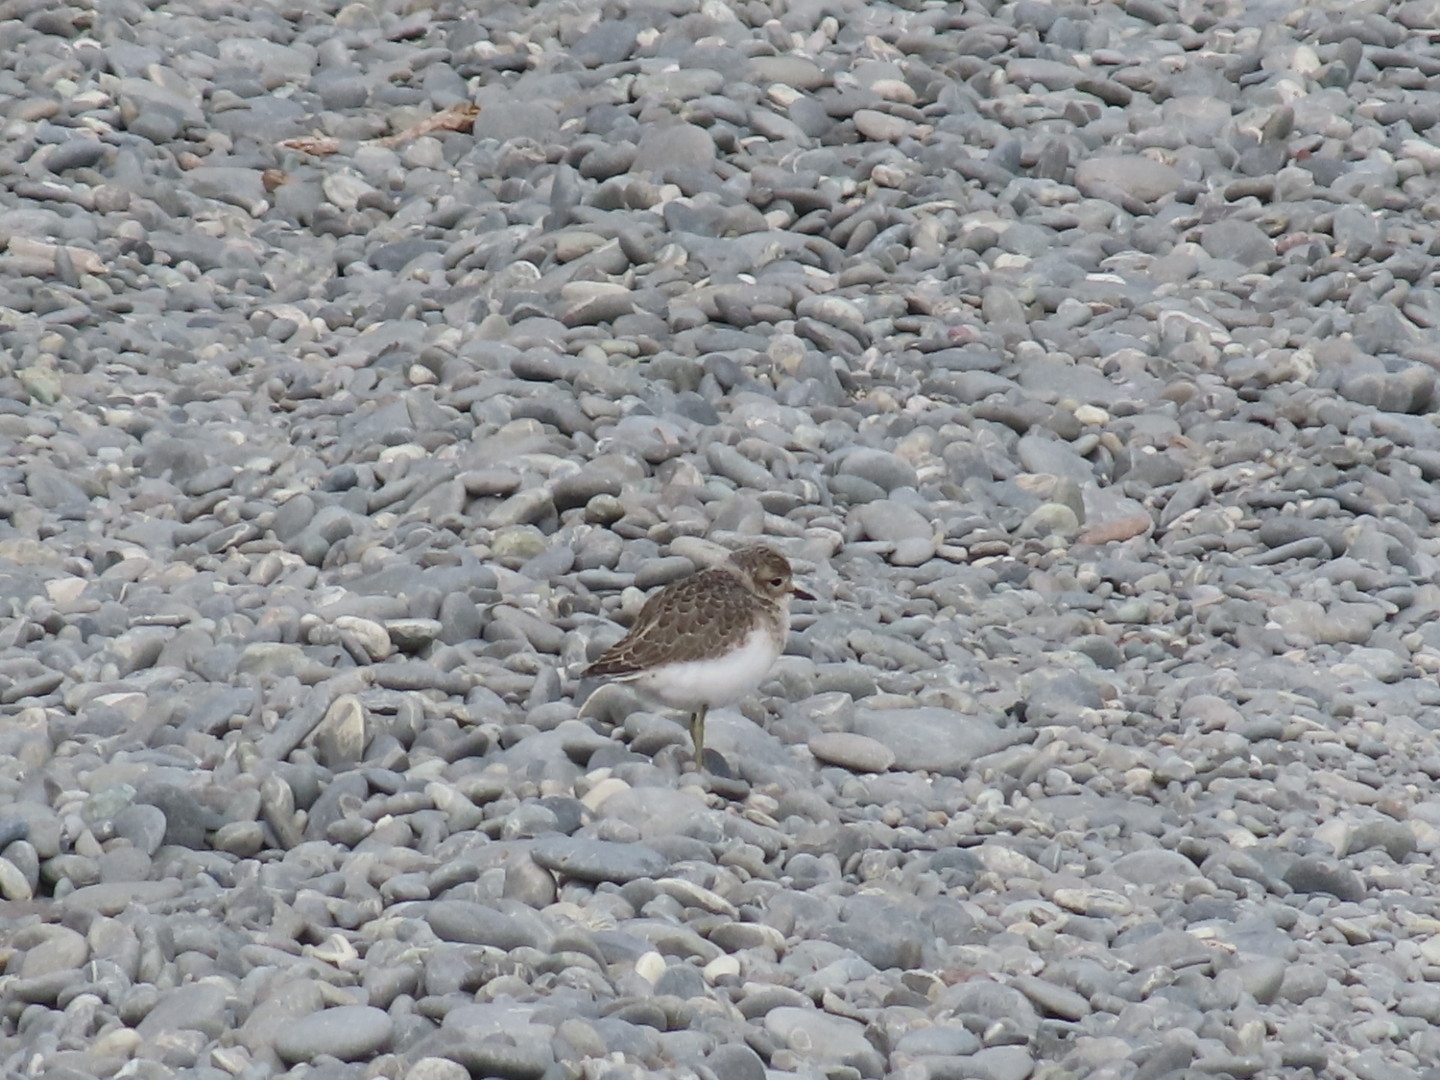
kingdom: Animalia
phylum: Chordata
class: Aves
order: Charadriiformes
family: Charadriidae
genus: Anarhynchus
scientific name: Anarhynchus
